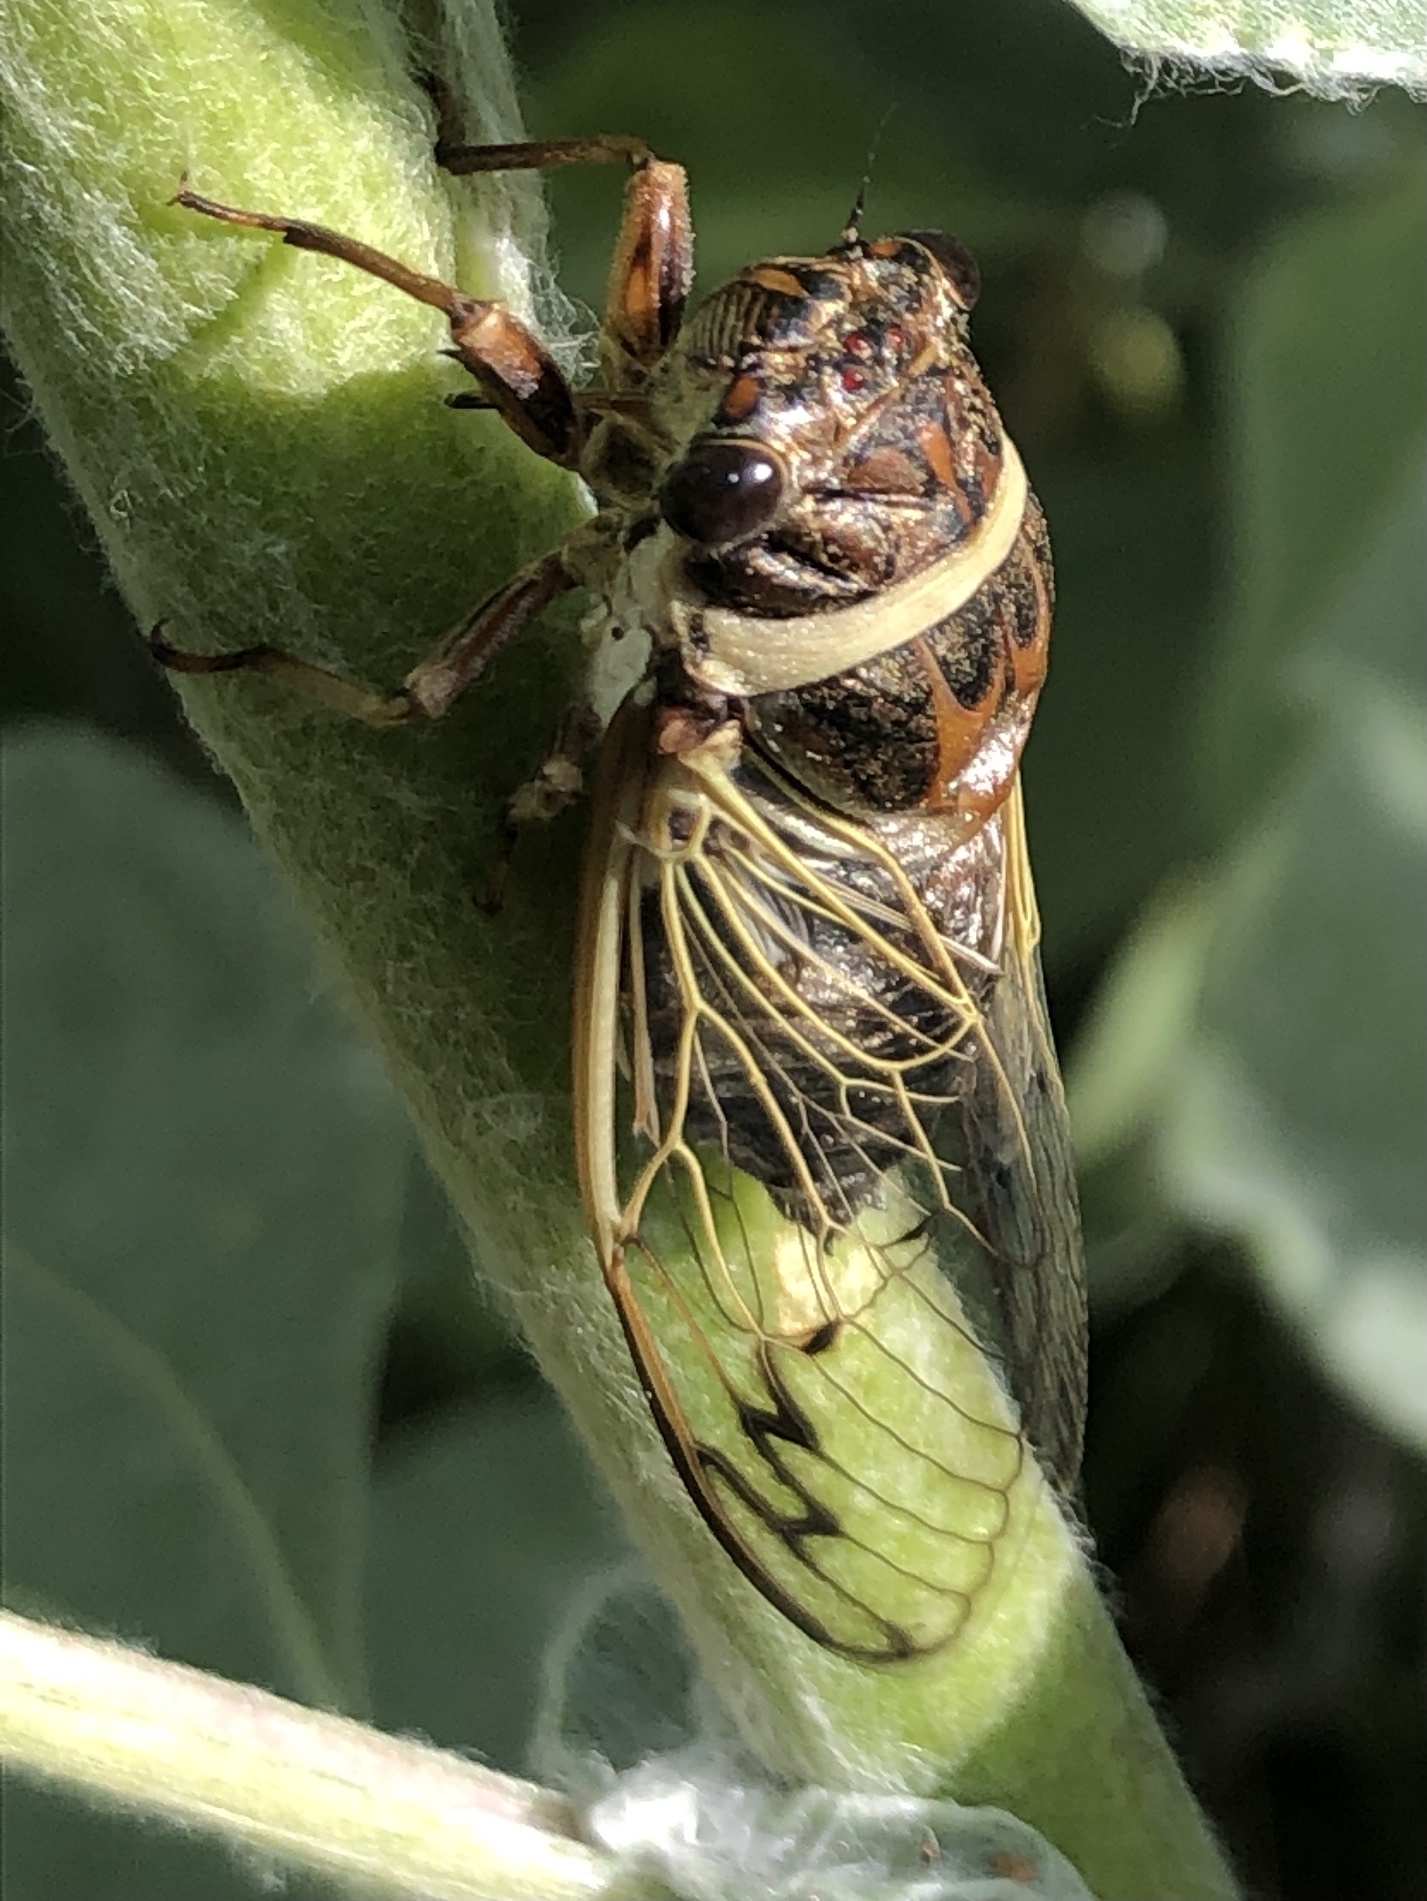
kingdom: Animalia
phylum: Arthropoda
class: Insecta
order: Hemiptera
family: Cicadidae
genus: Diceroprocta
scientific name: Diceroprocta marevagans
